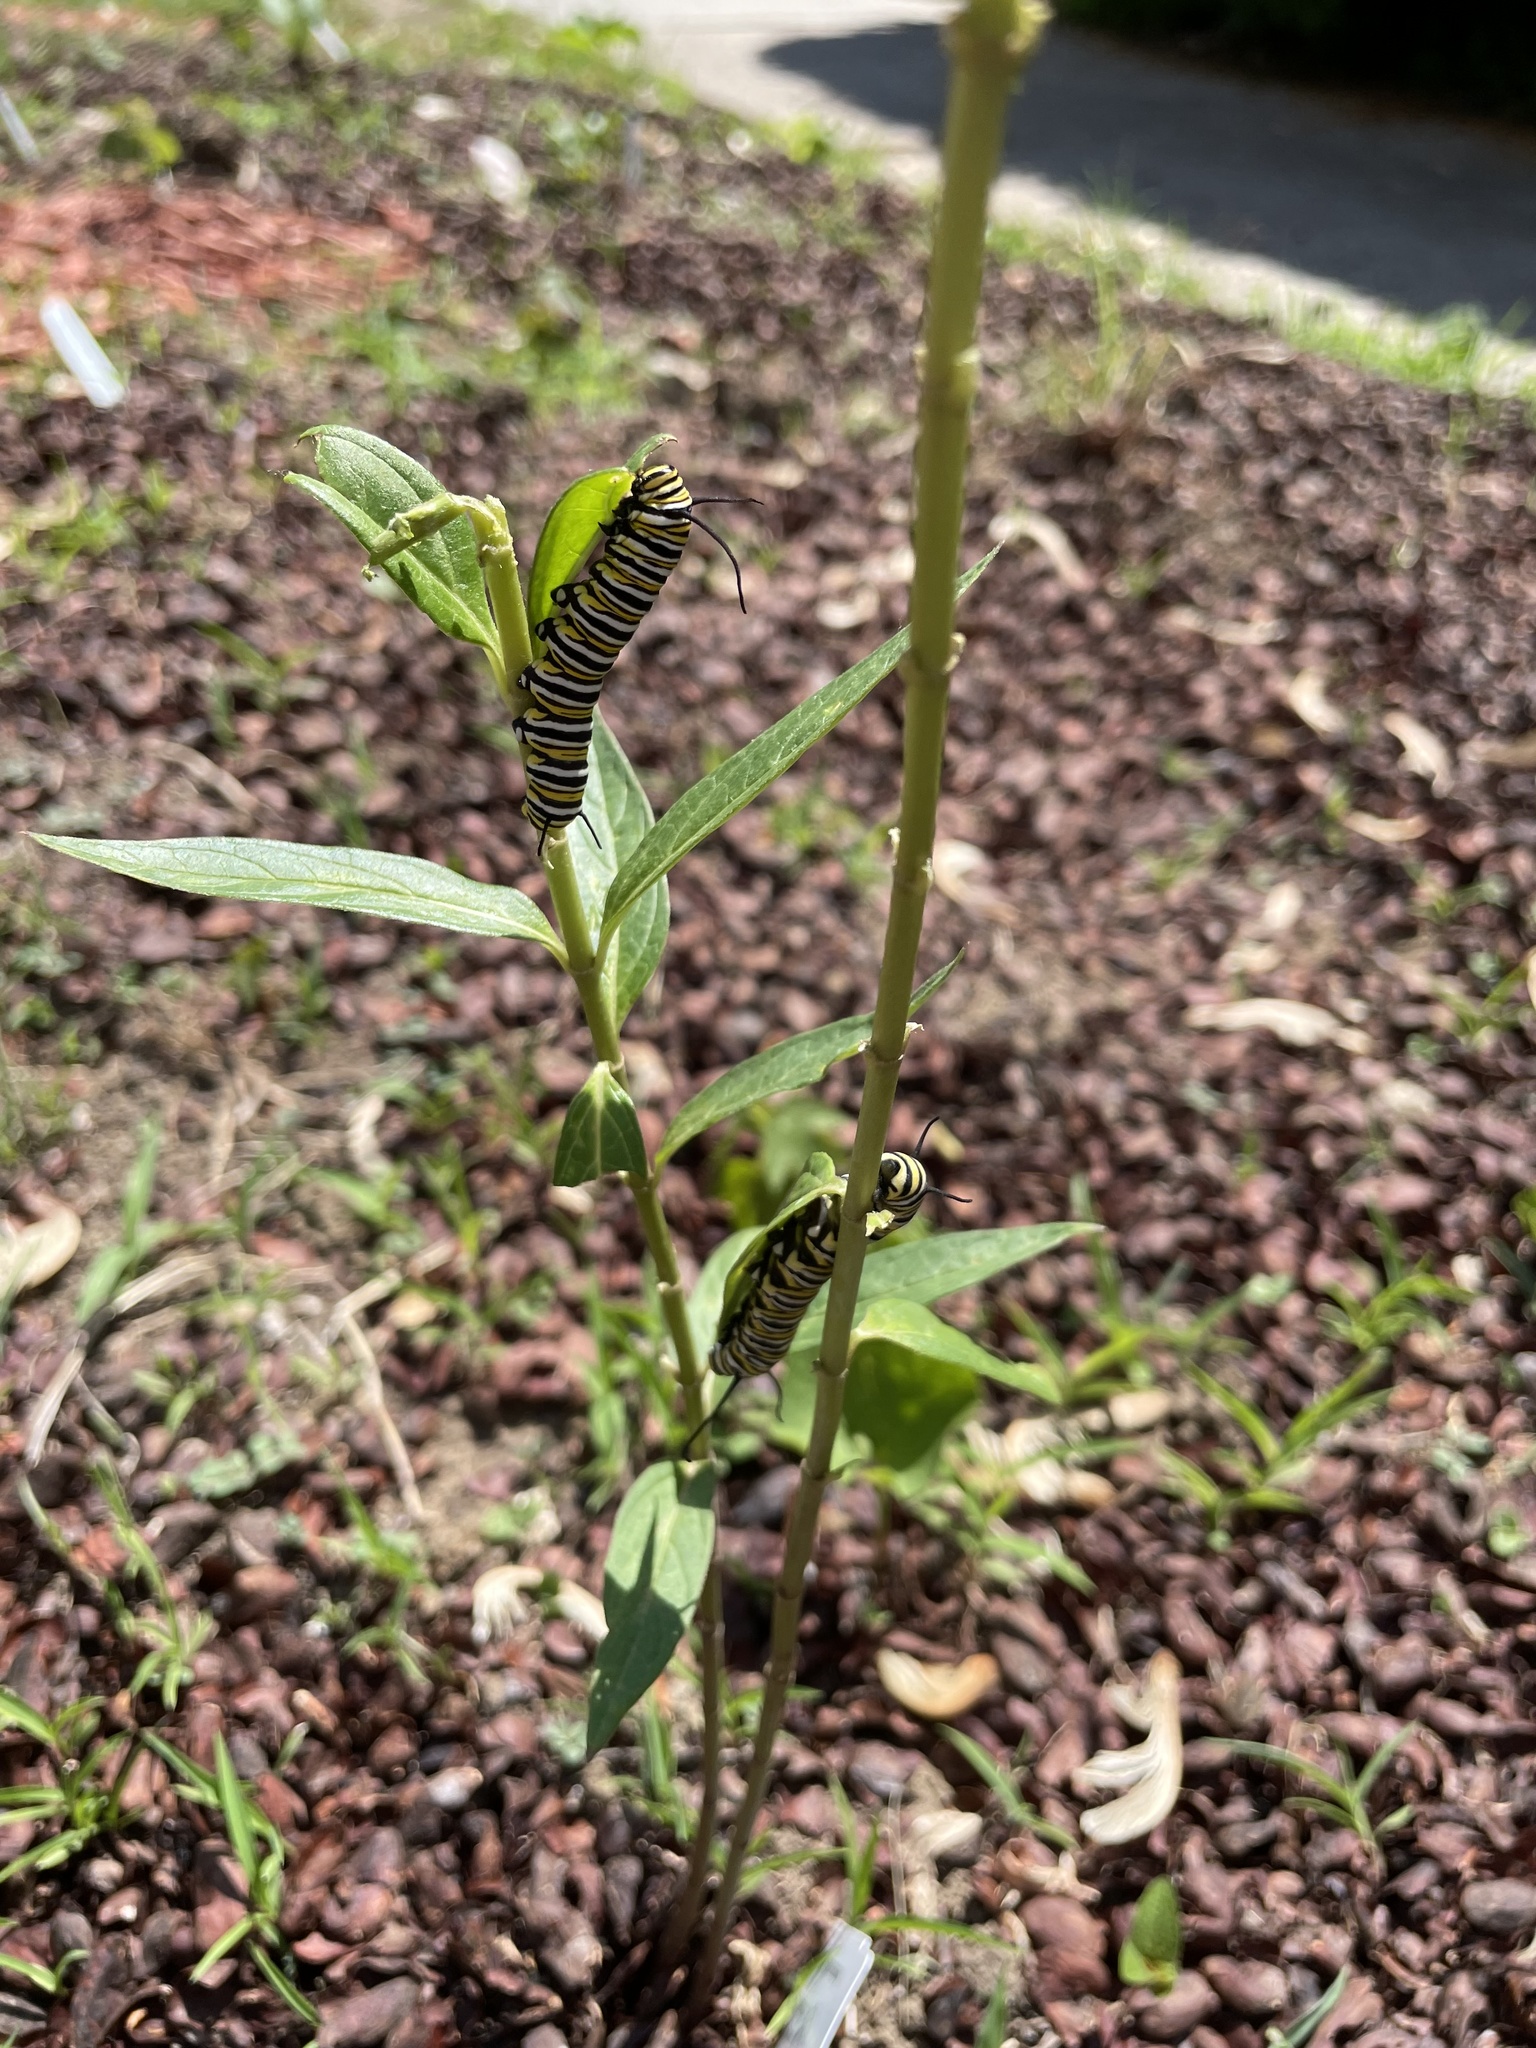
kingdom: Animalia
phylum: Arthropoda
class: Insecta
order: Lepidoptera
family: Nymphalidae
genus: Danaus
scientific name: Danaus plexippus
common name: Monarch
